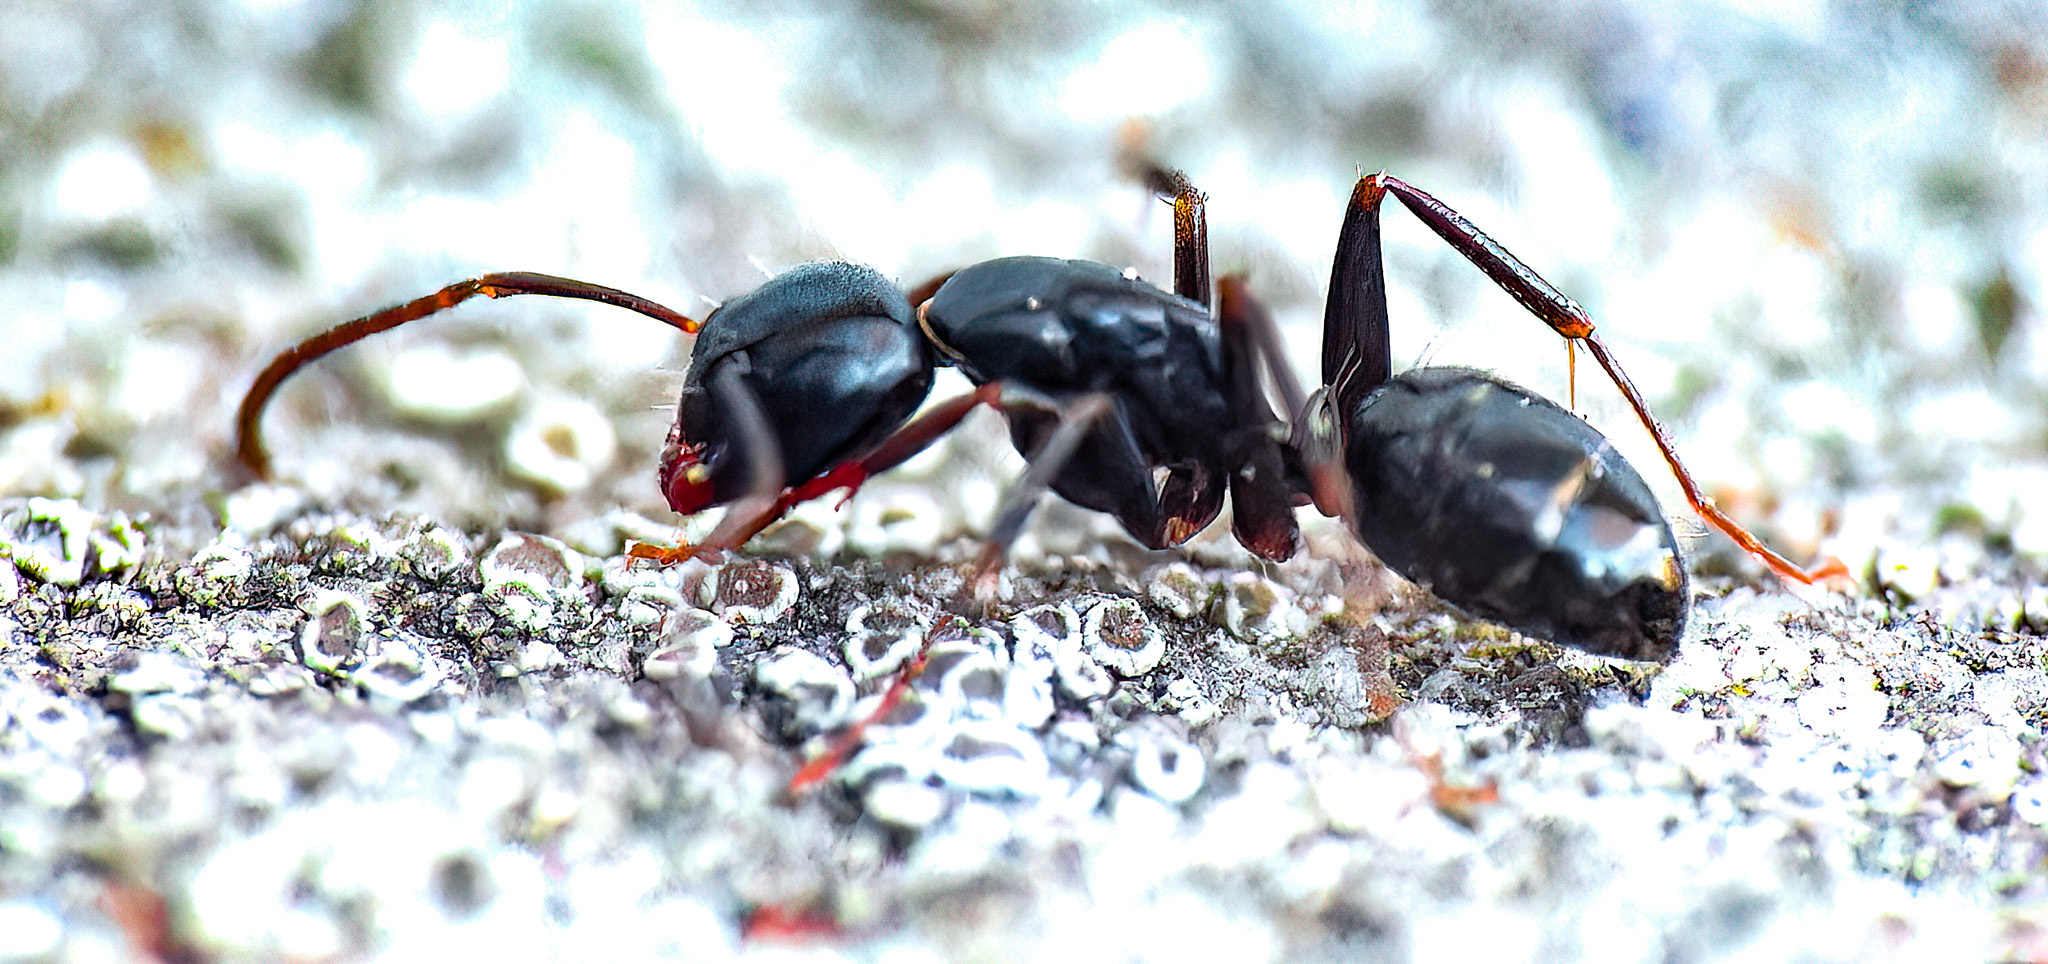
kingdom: Animalia
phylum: Arthropoda
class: Insecta
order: Hymenoptera
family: Formicidae
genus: Camponotus
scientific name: Camponotus nearcticus
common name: Smaller carpenter ant
